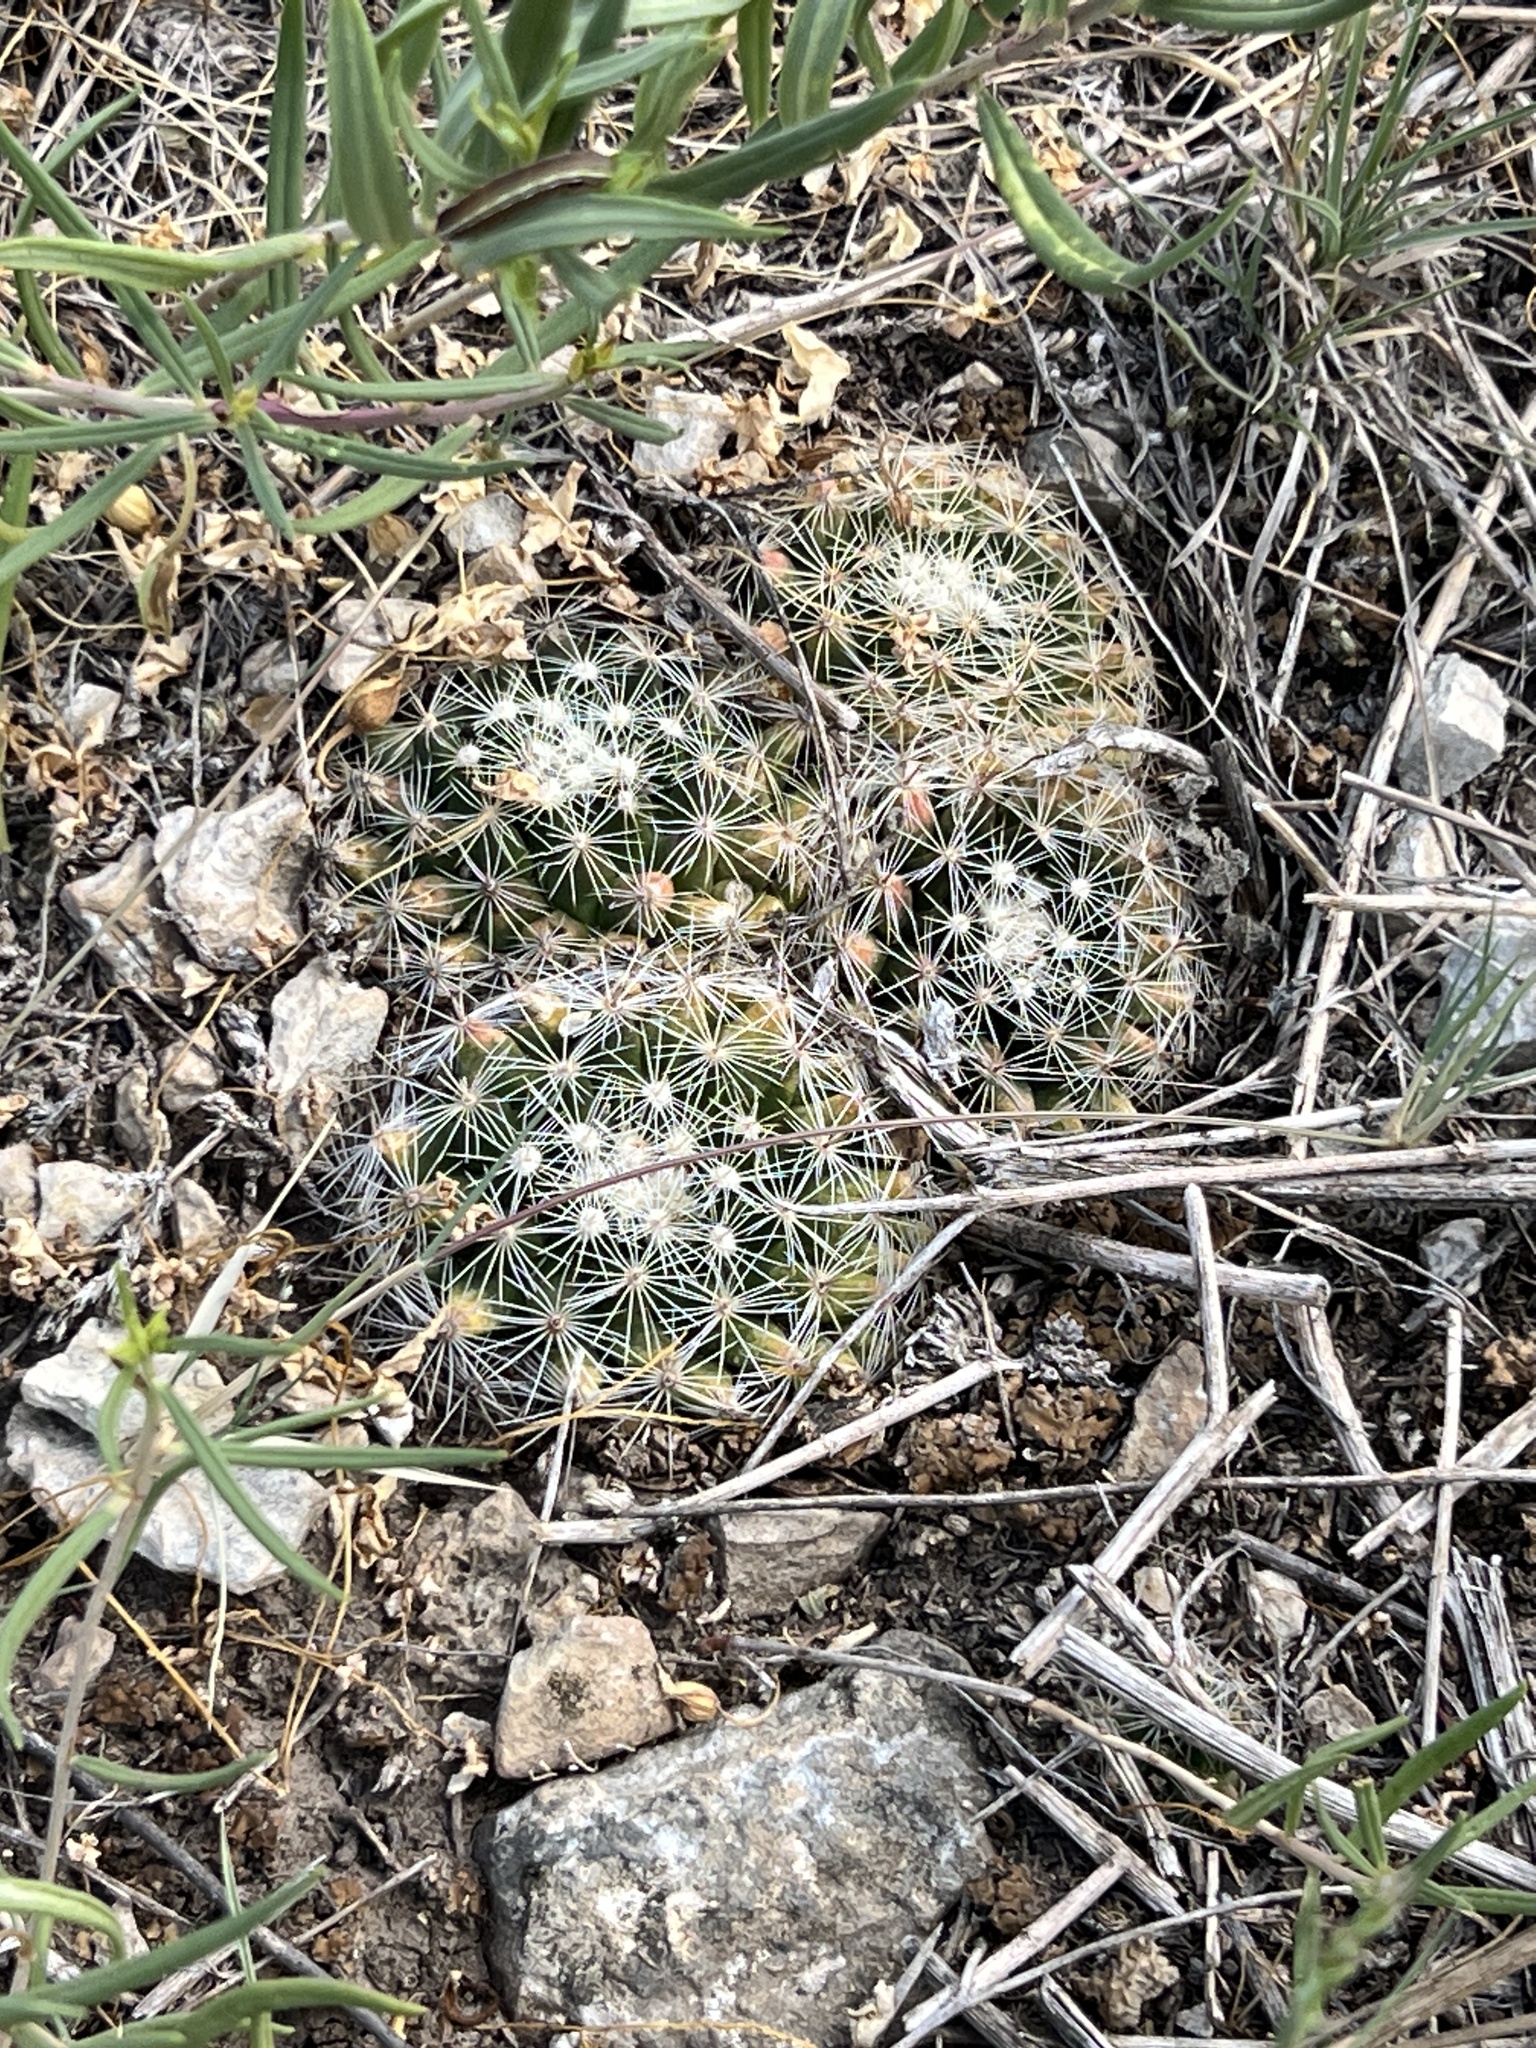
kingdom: Plantae
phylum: Tracheophyta
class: Magnoliopsida
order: Caryophyllales
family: Cactaceae
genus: Mammillaria
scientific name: Mammillaria heyderi
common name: Little nipple cactus
